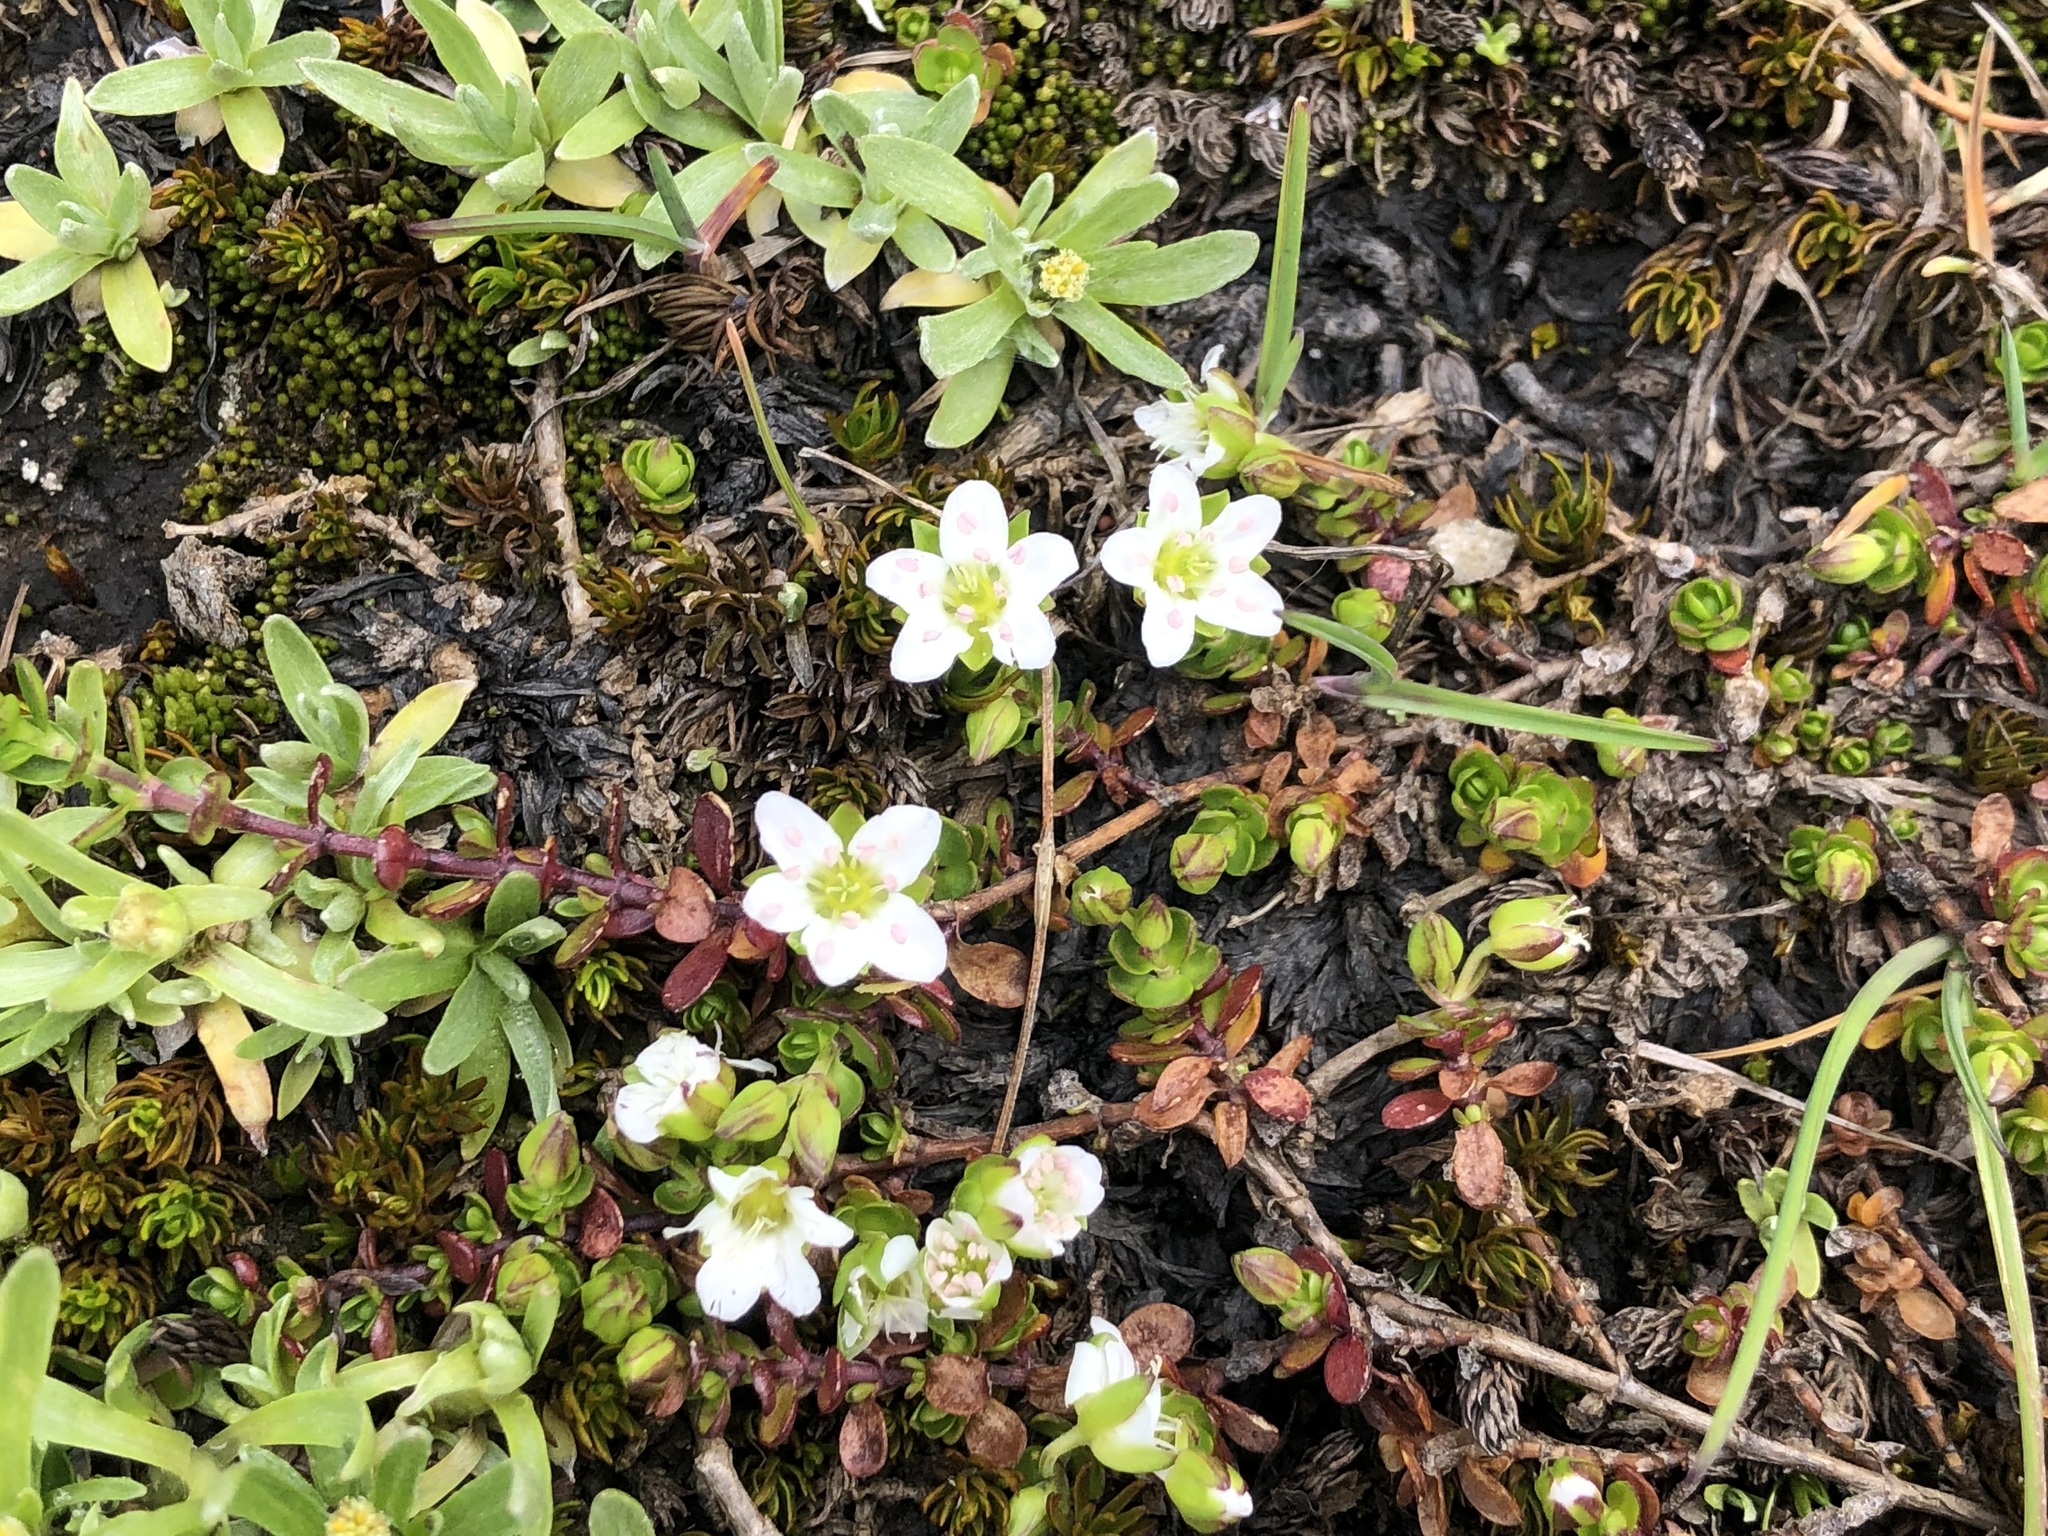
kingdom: Plantae
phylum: Tracheophyta
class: Magnoliopsida
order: Caryophyllales
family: Caryophyllaceae
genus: Arenaria
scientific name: Arenaria biflora
